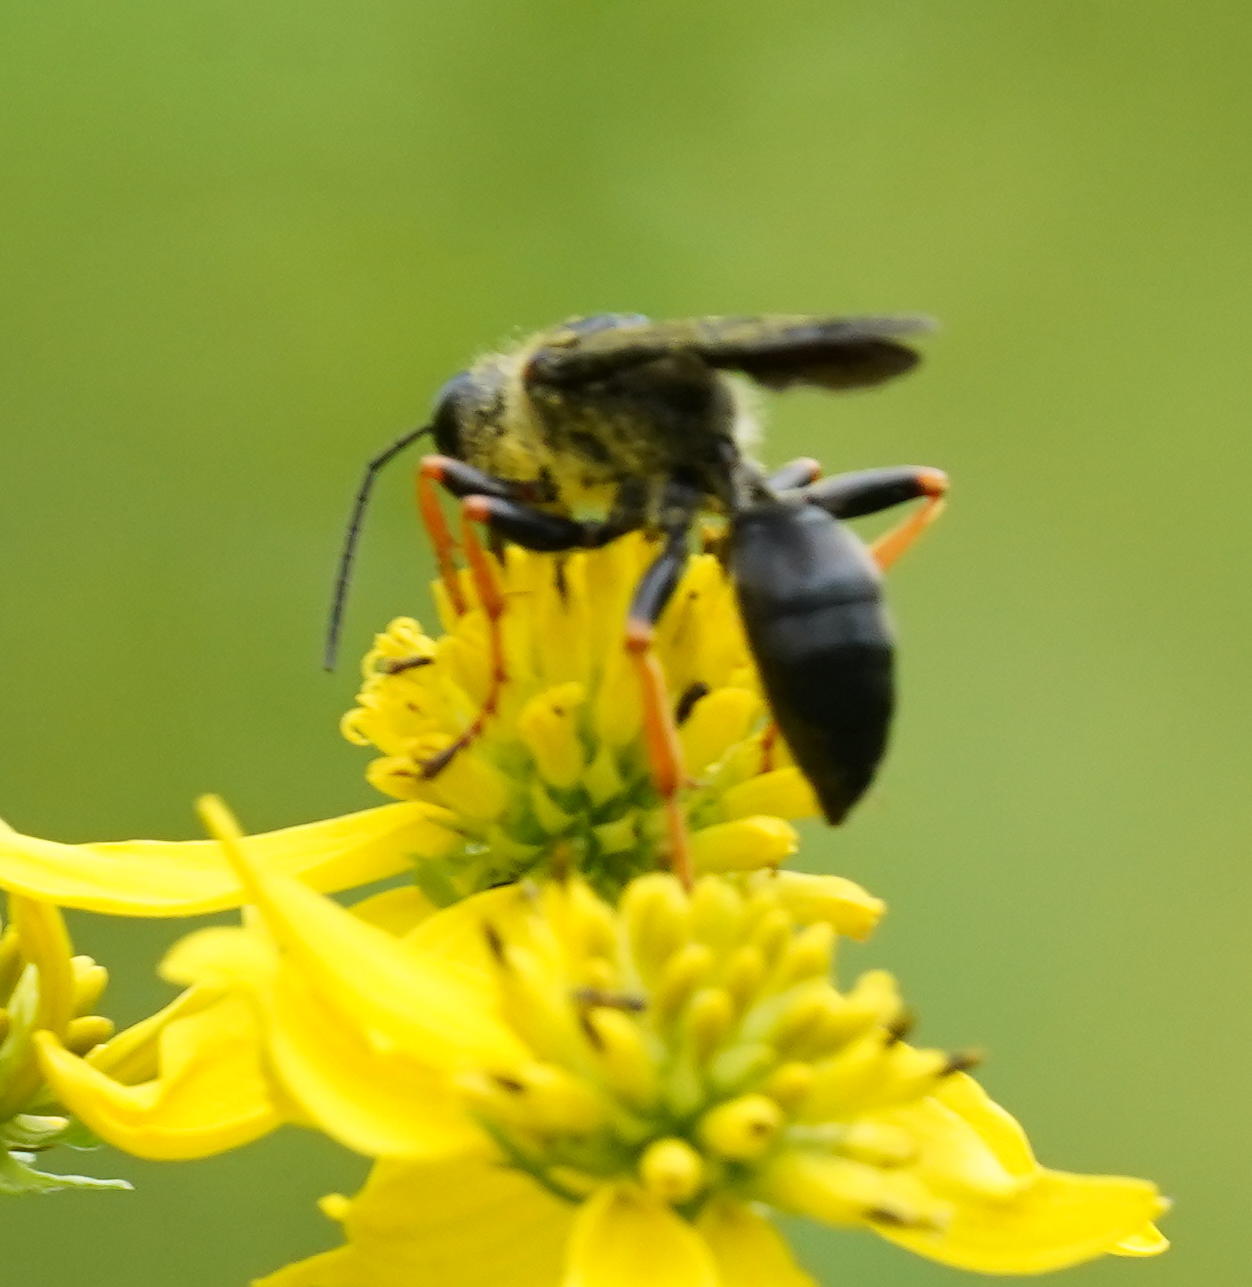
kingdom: Animalia
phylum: Arthropoda
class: Insecta
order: Hymenoptera
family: Sphecidae
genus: Sphex
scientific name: Sphex nudus
